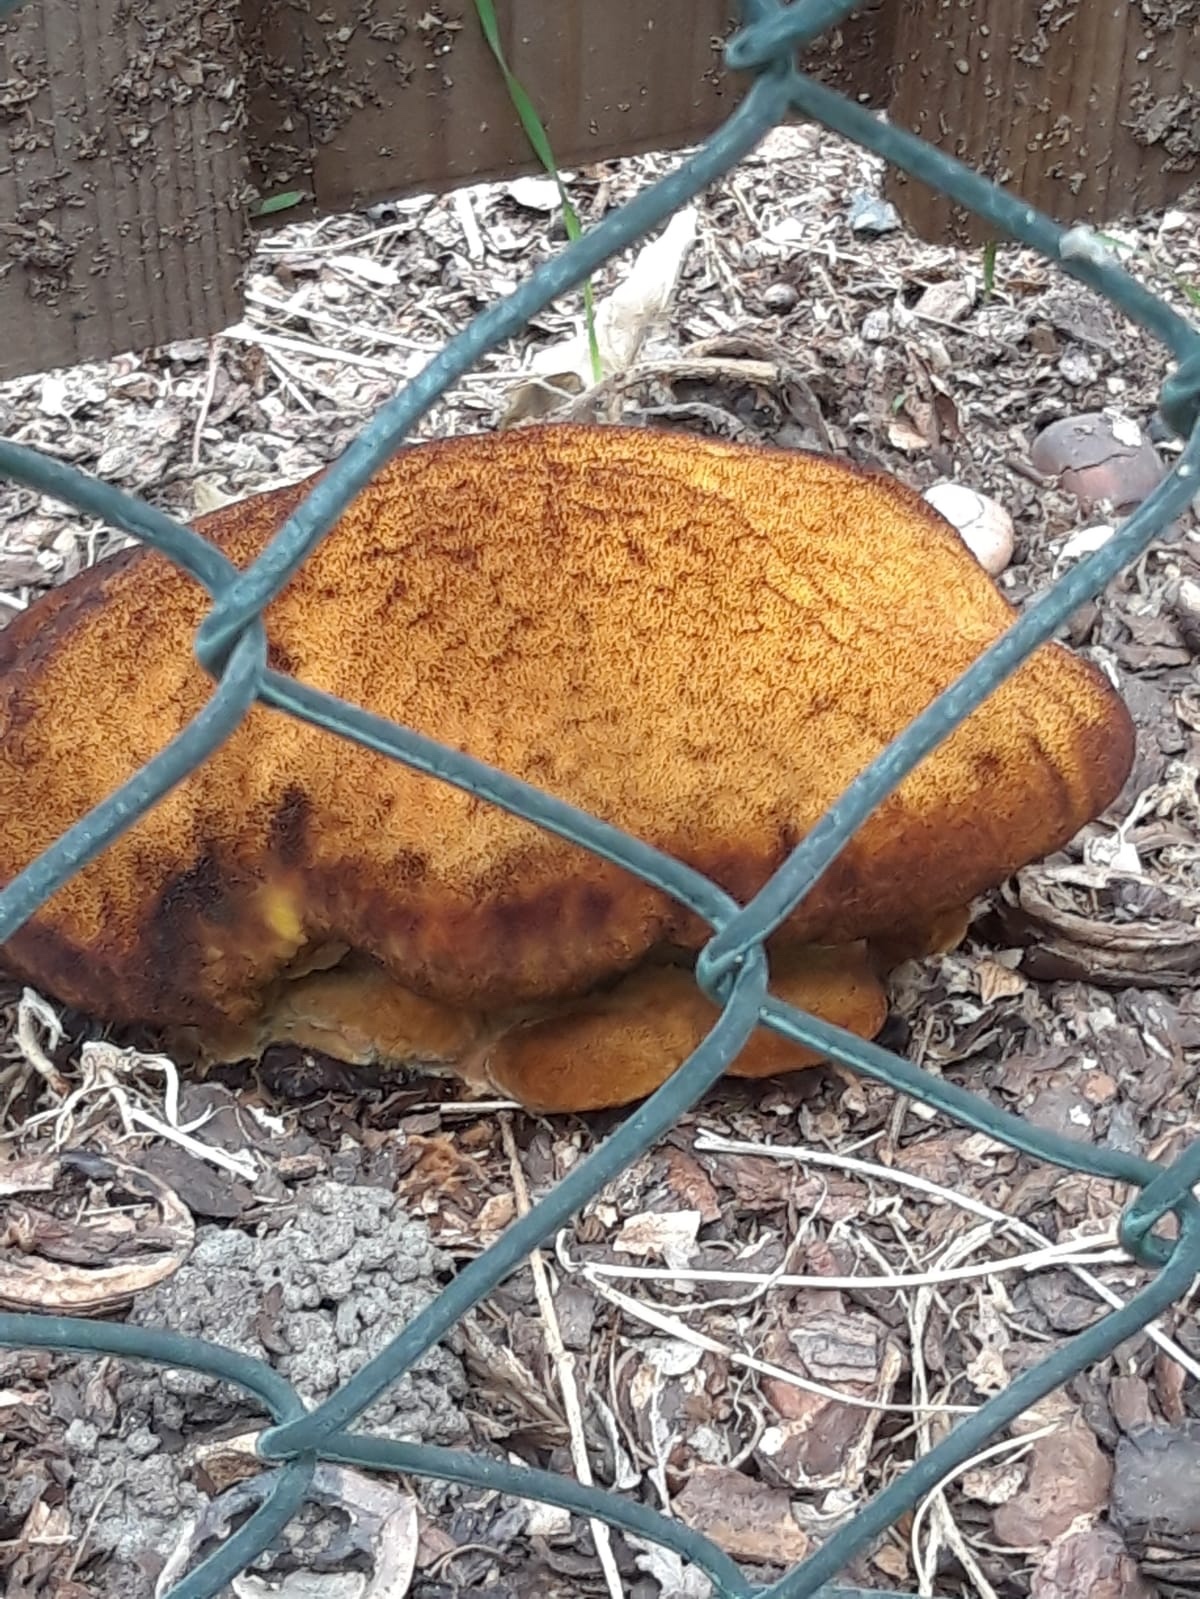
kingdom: Fungi
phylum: Basidiomycota
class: Agaricomycetes
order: Polyporales
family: Laetiporaceae
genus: Phaeolus
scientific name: Phaeolus schweinitzii
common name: Dyer's mazegill
